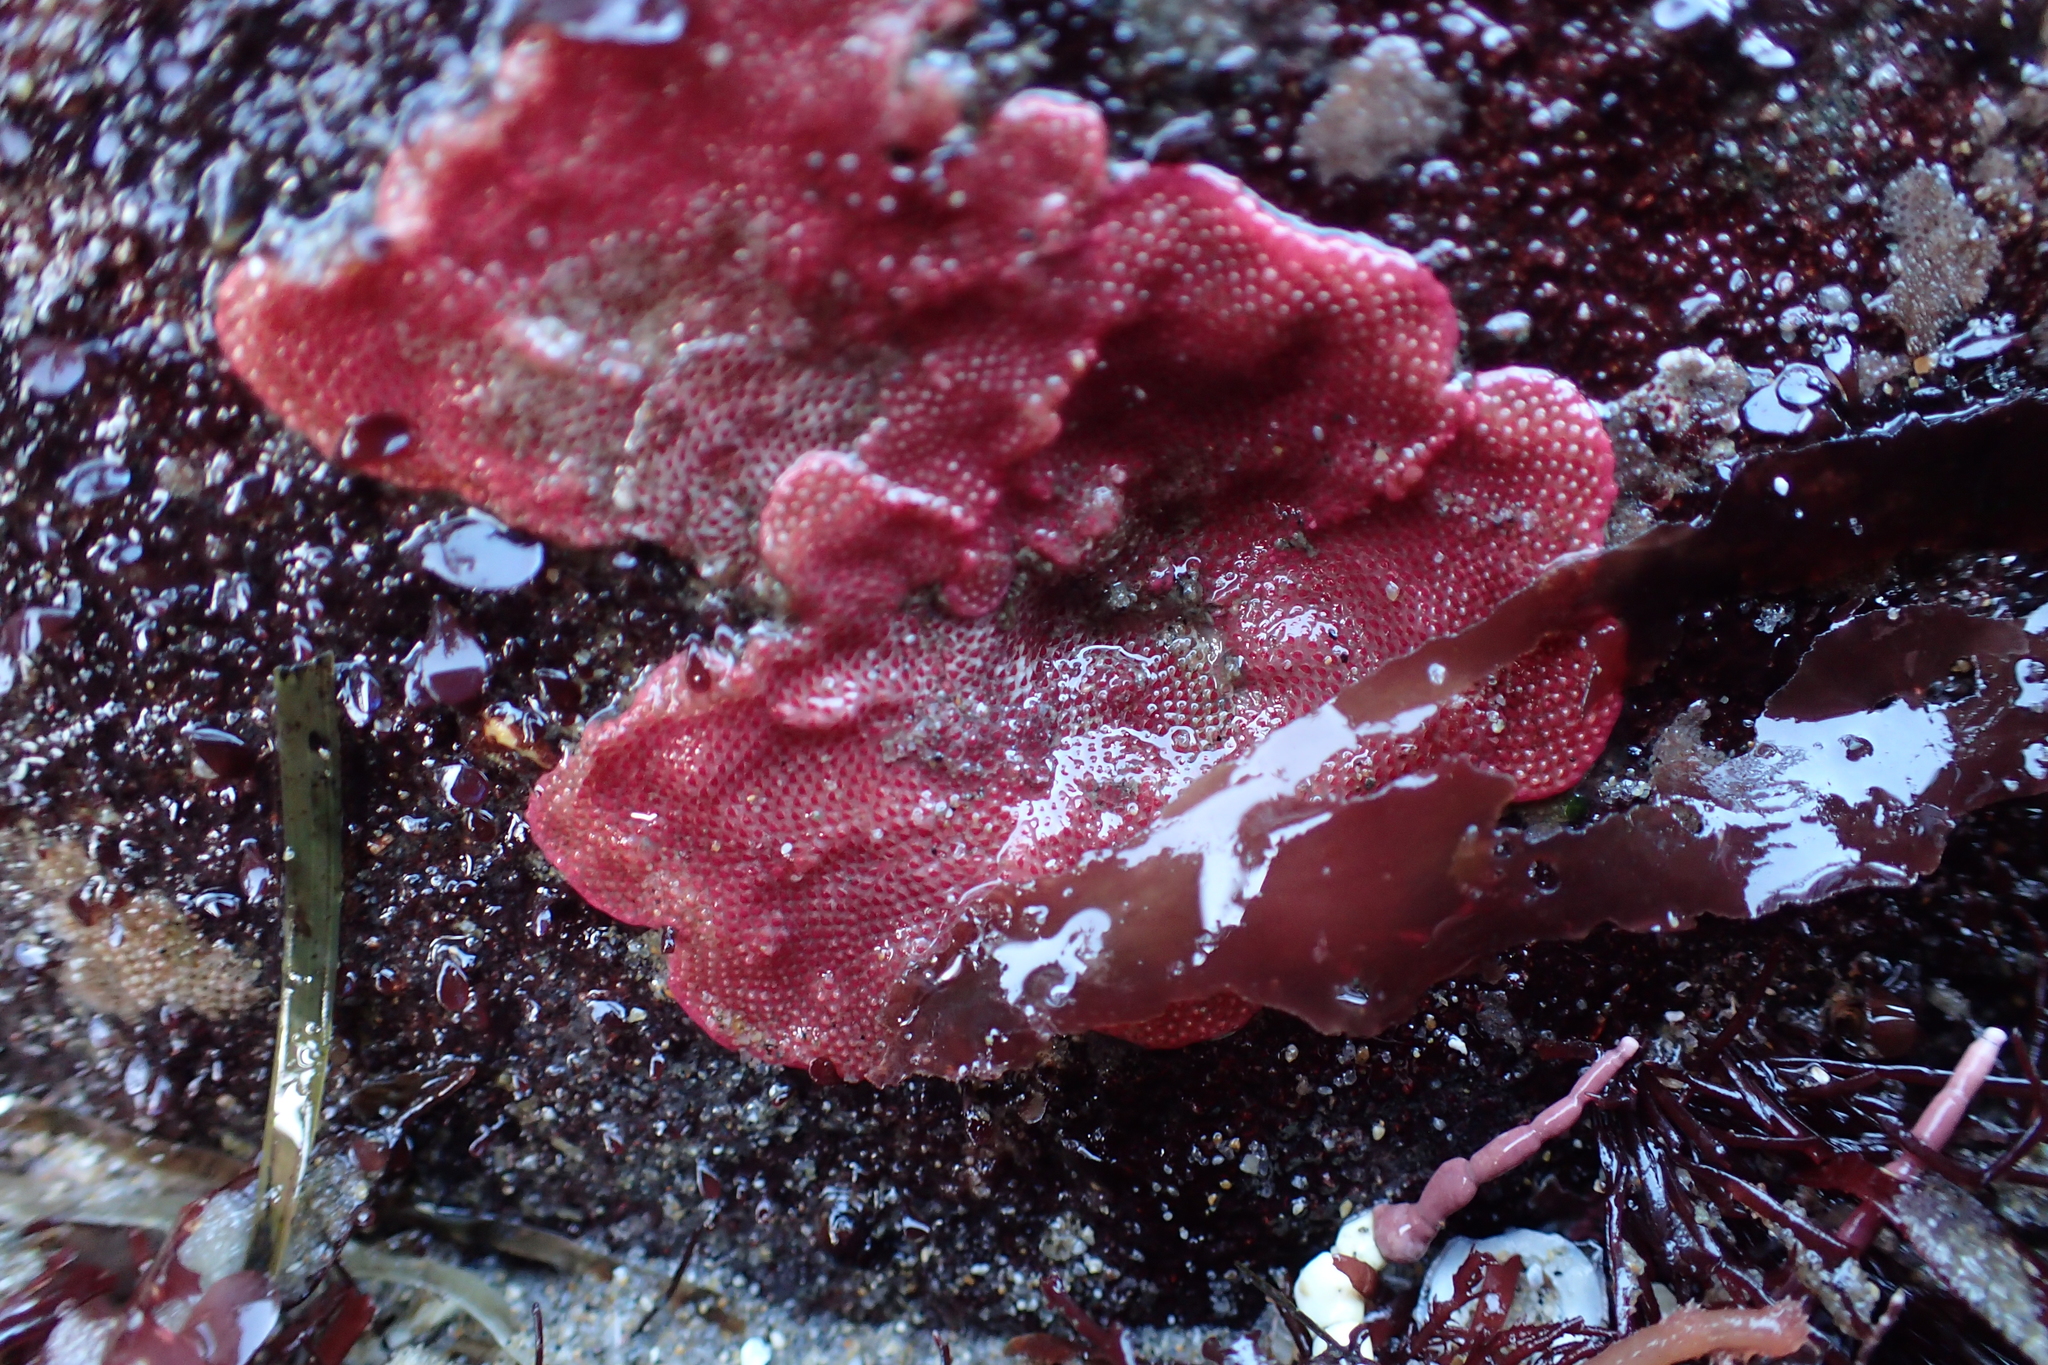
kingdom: Animalia
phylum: Bryozoa
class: Gymnolaemata
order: Cheilostomatida
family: Eurystomellidae
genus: Integripelta
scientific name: Integripelta bilabiata
